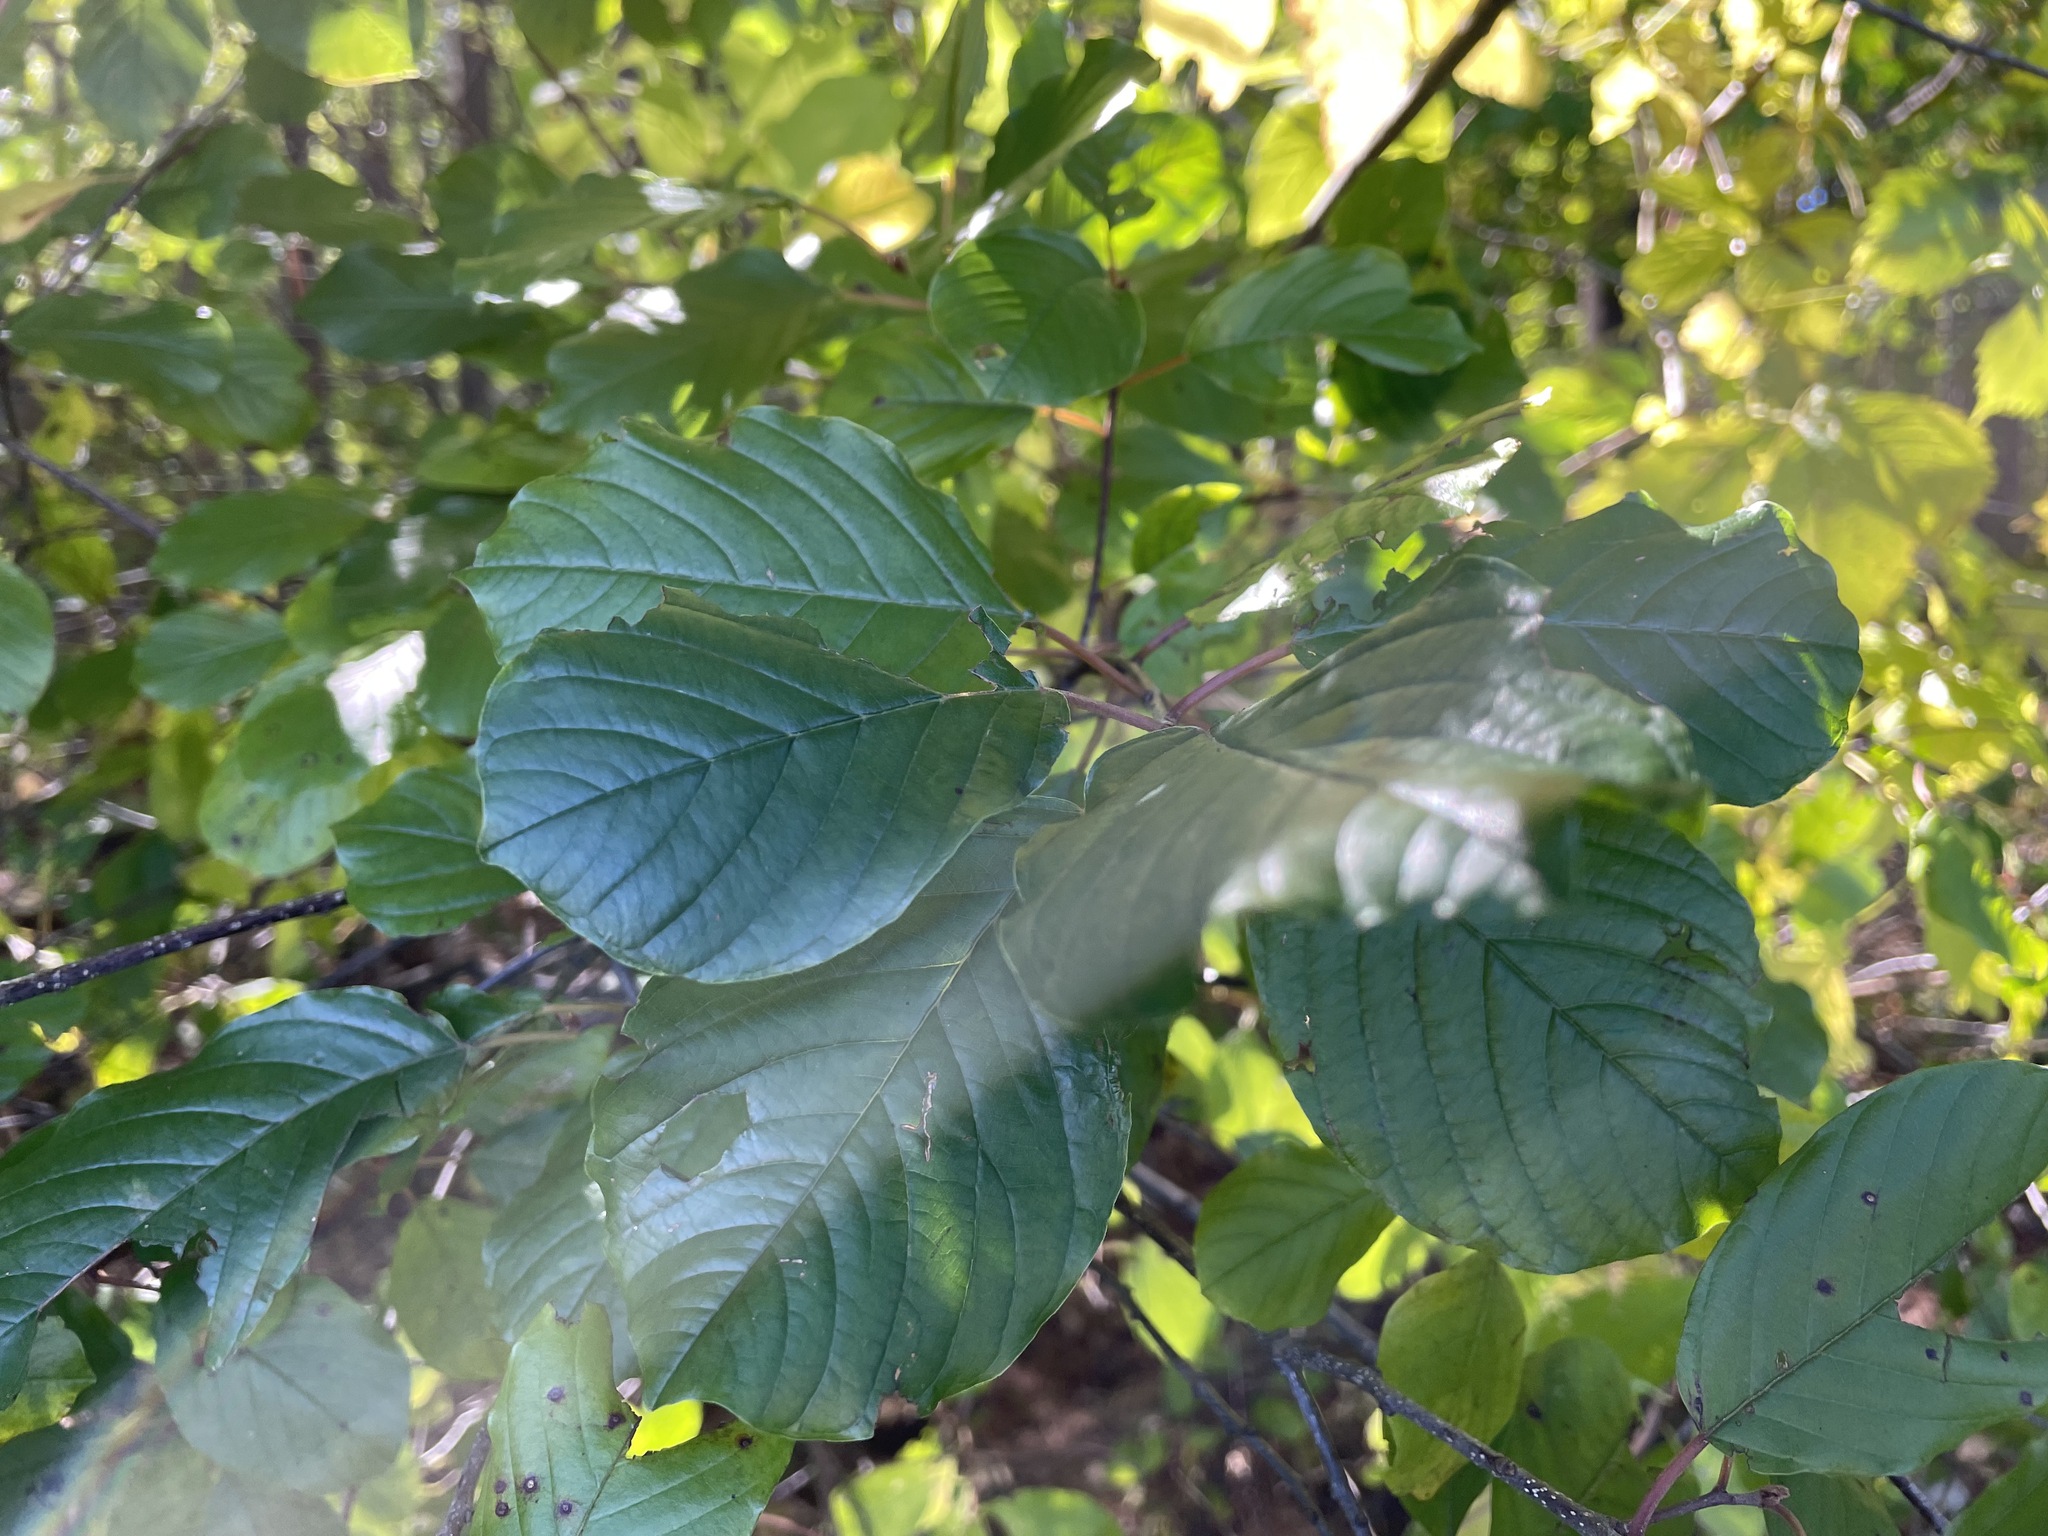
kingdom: Plantae
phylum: Tracheophyta
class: Magnoliopsida
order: Rosales
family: Rhamnaceae
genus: Frangula
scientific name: Frangula alnus
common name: Alder buckthorn
